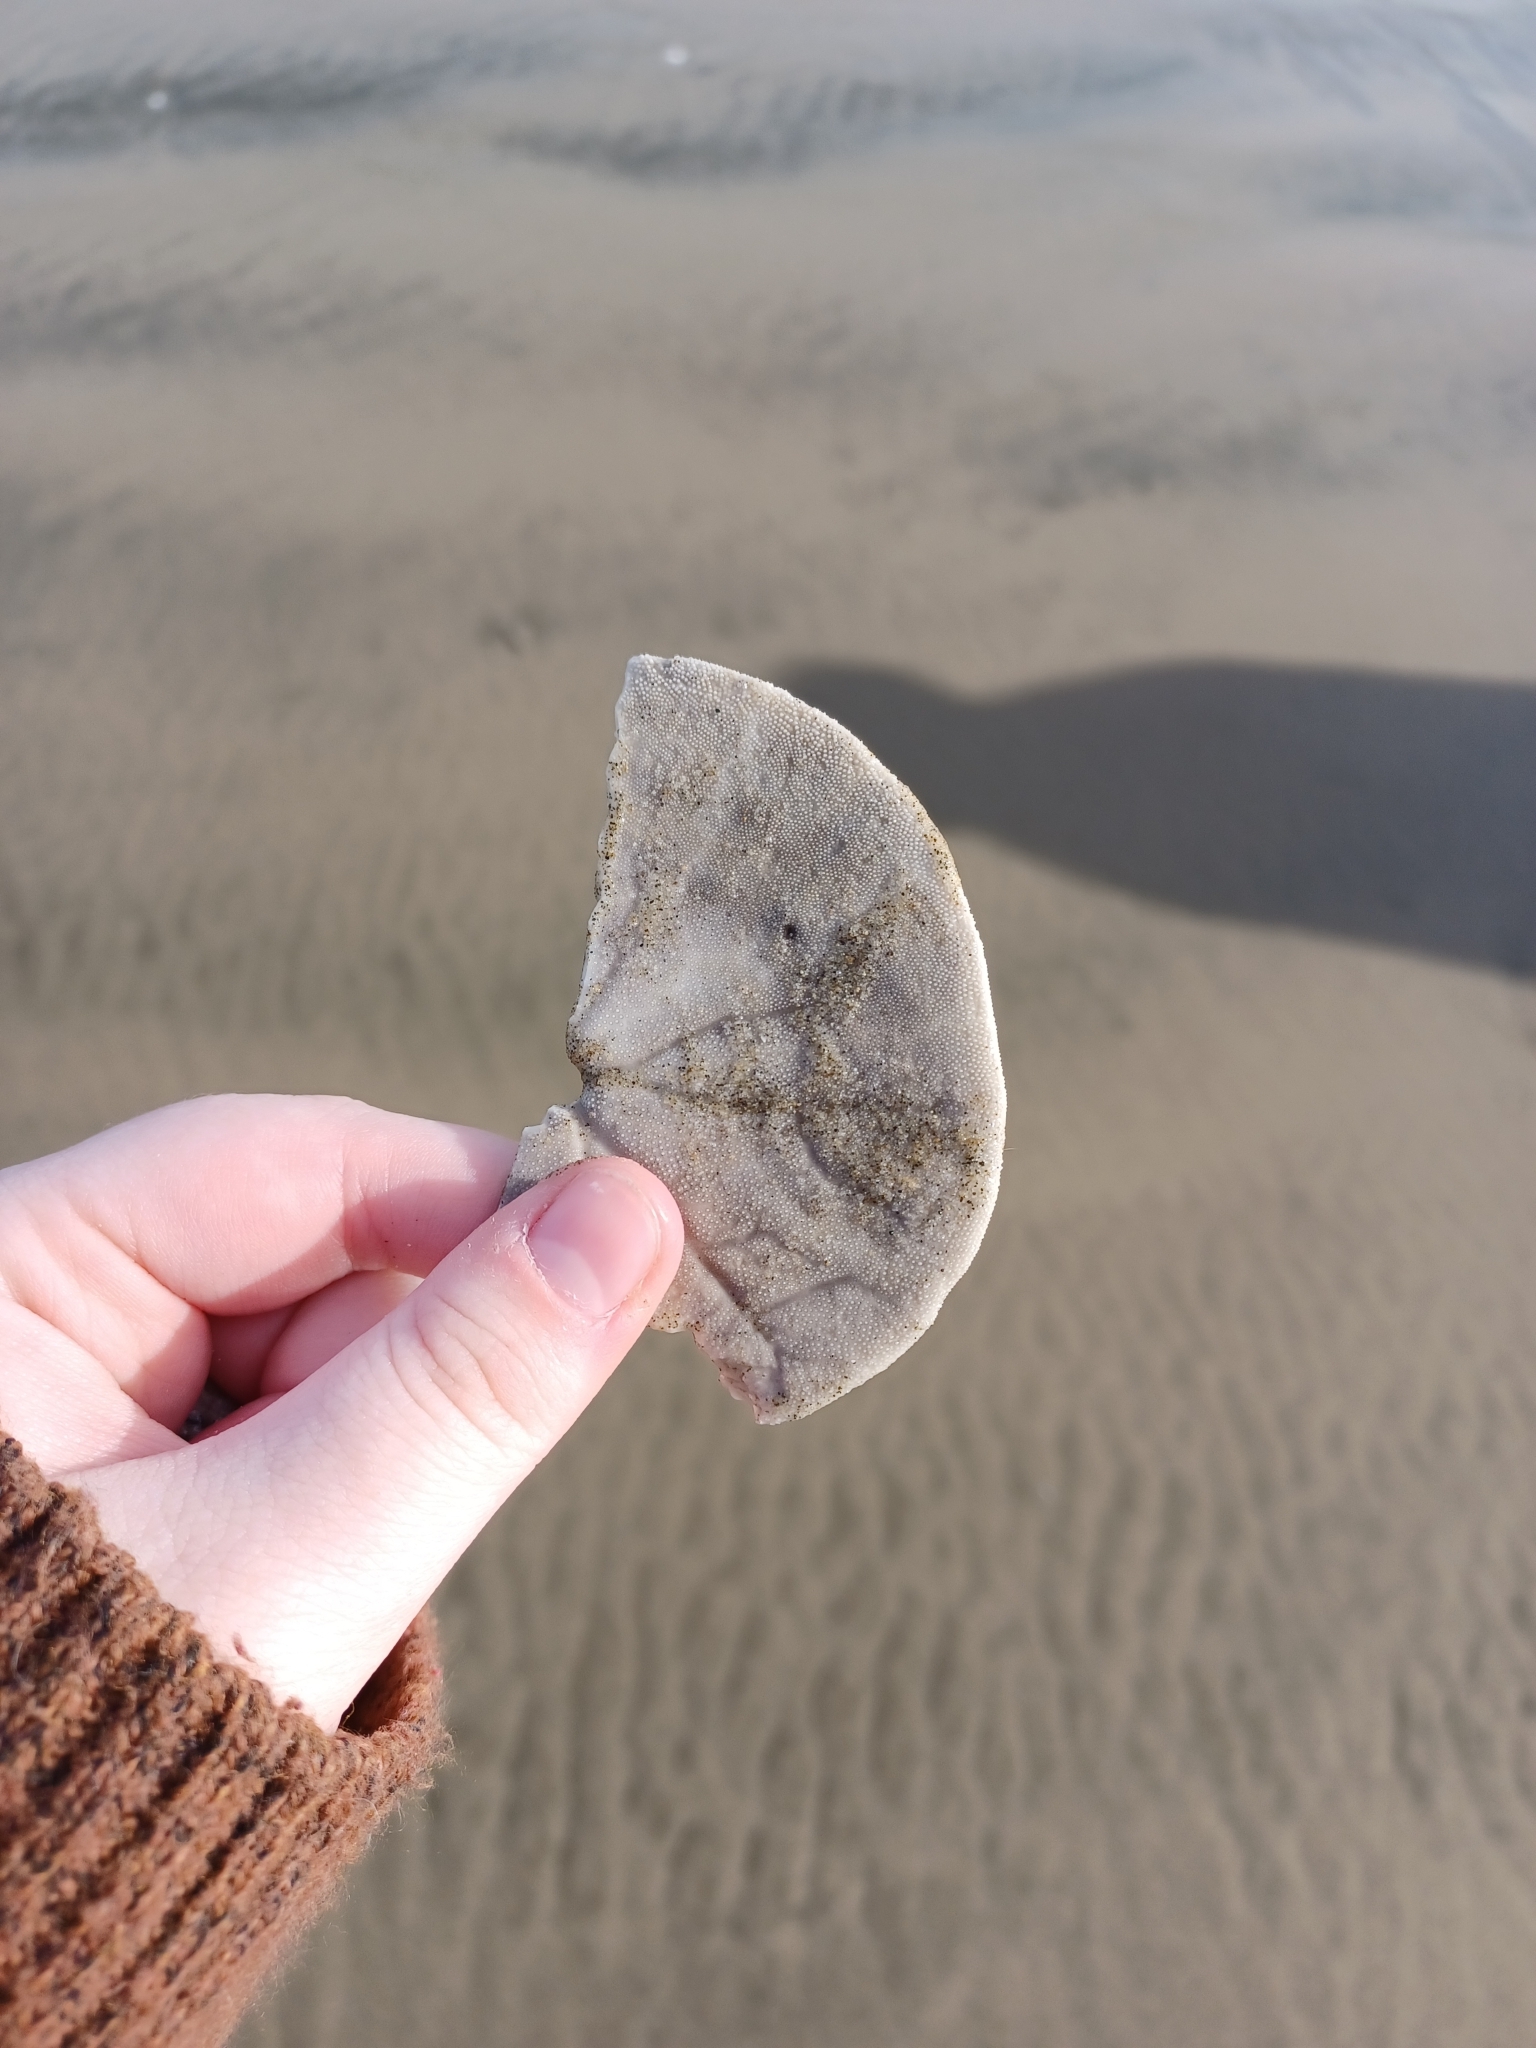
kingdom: Animalia
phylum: Echinodermata
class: Echinoidea
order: Echinolampadacea
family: Dendrasteridae
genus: Dendraster
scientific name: Dendraster excentricus
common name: Eccentric sand dollar sea urchin
